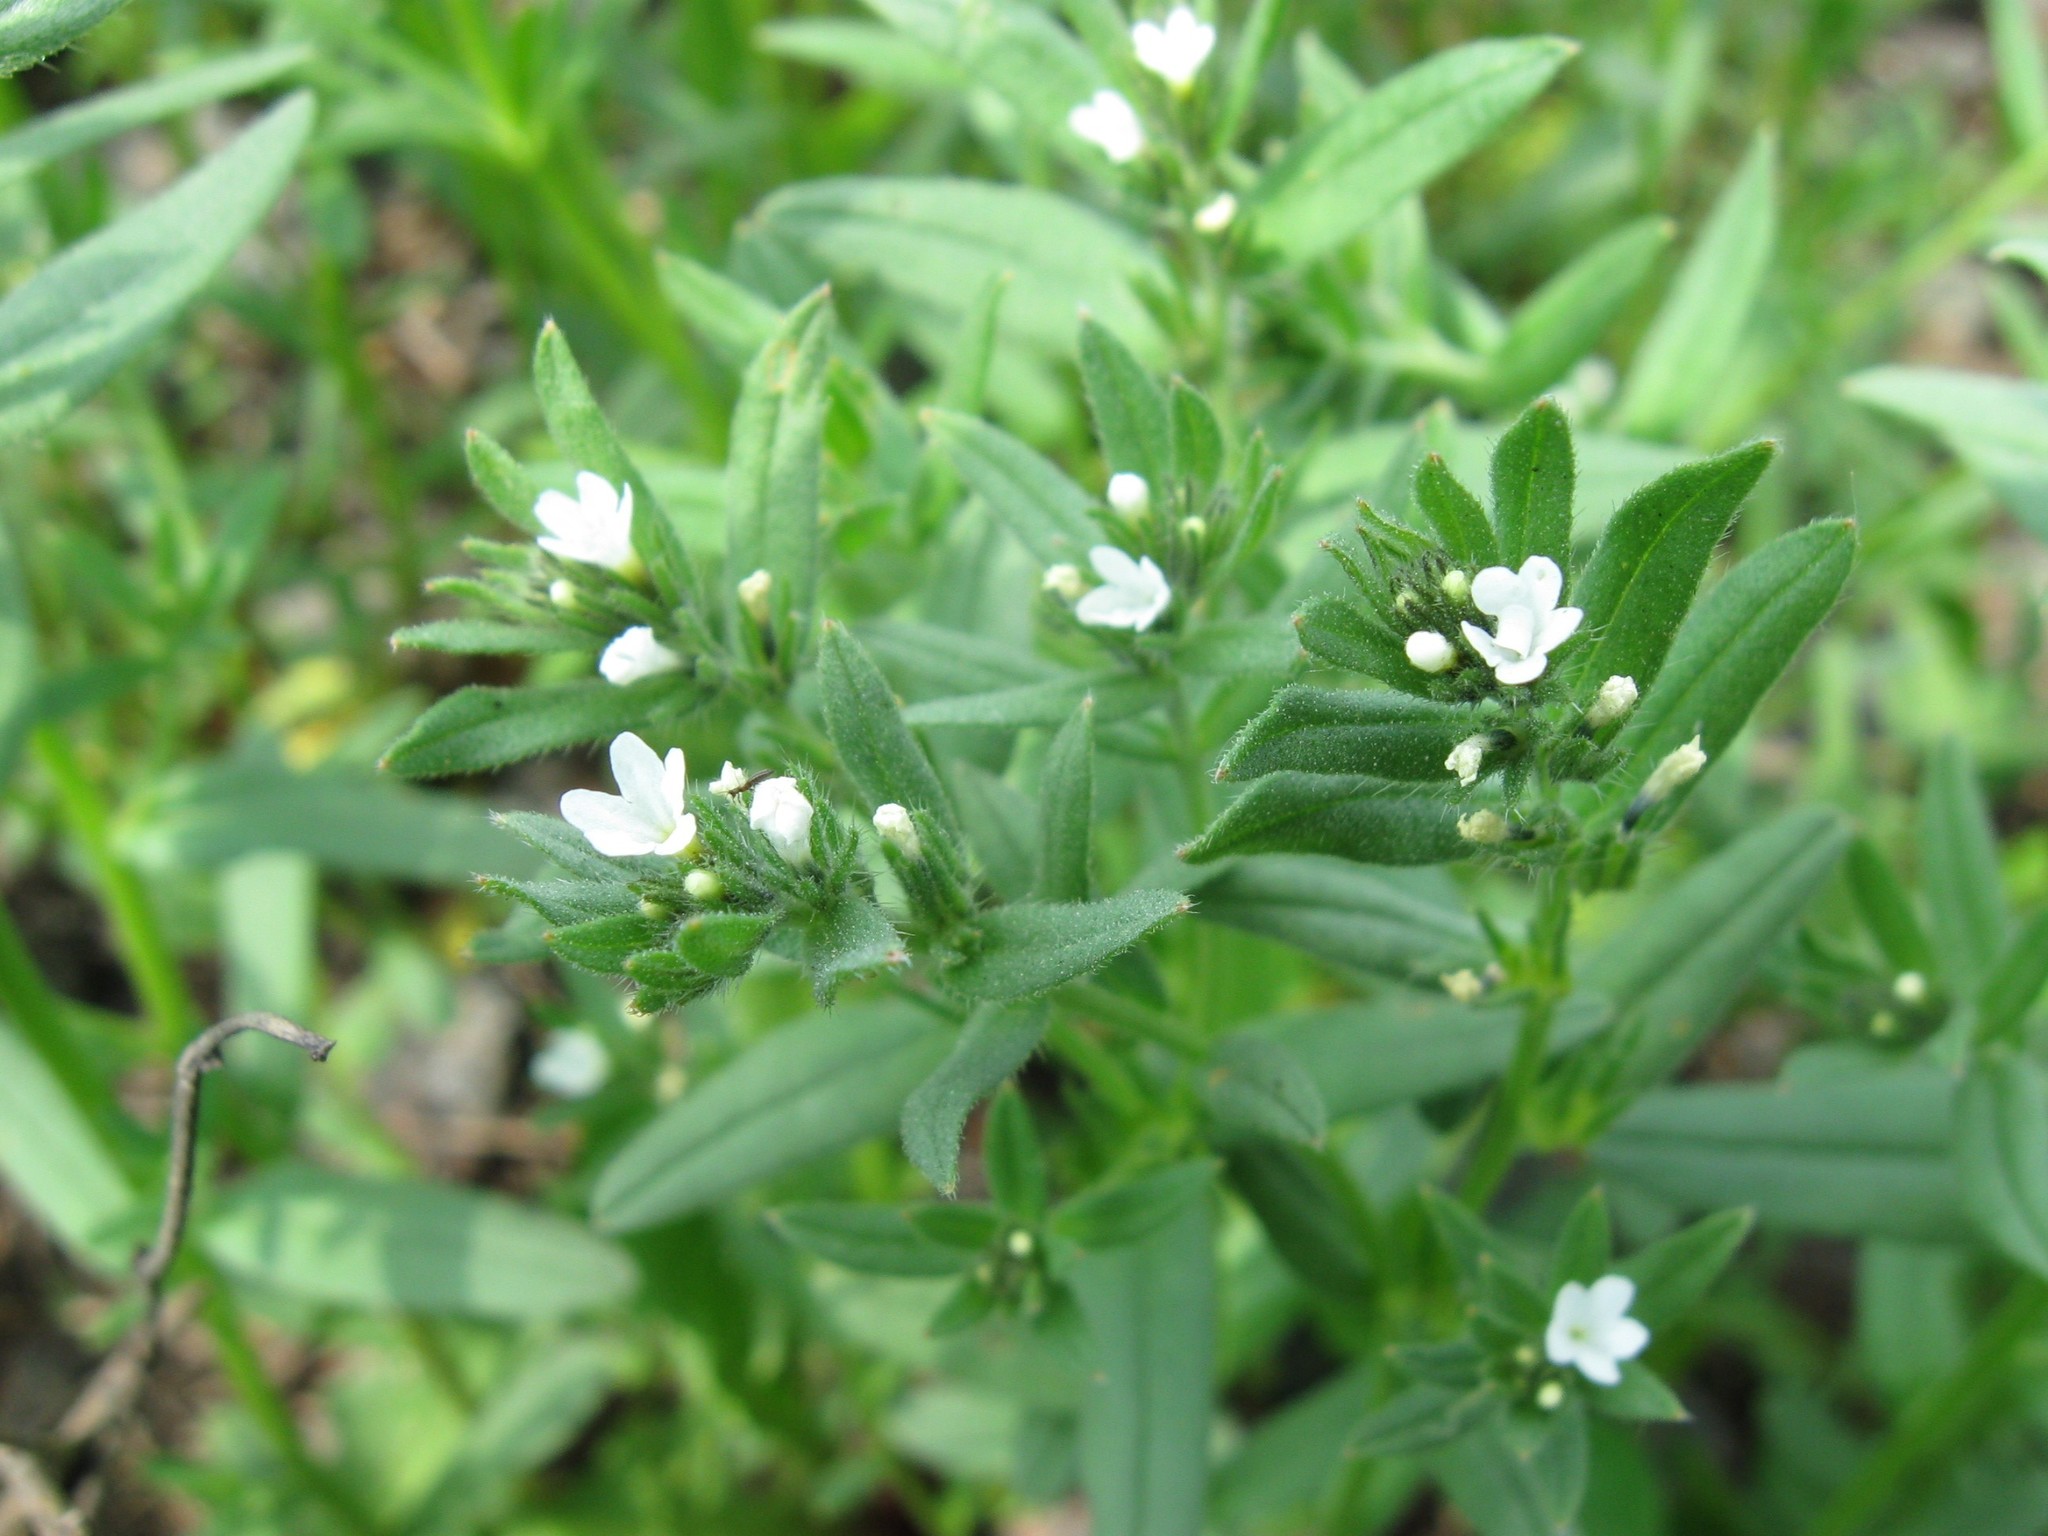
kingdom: Plantae
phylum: Tracheophyta
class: Magnoliopsida
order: Boraginales
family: Boraginaceae
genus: Buglossoides
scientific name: Buglossoides arvensis
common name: Corn gromwell
